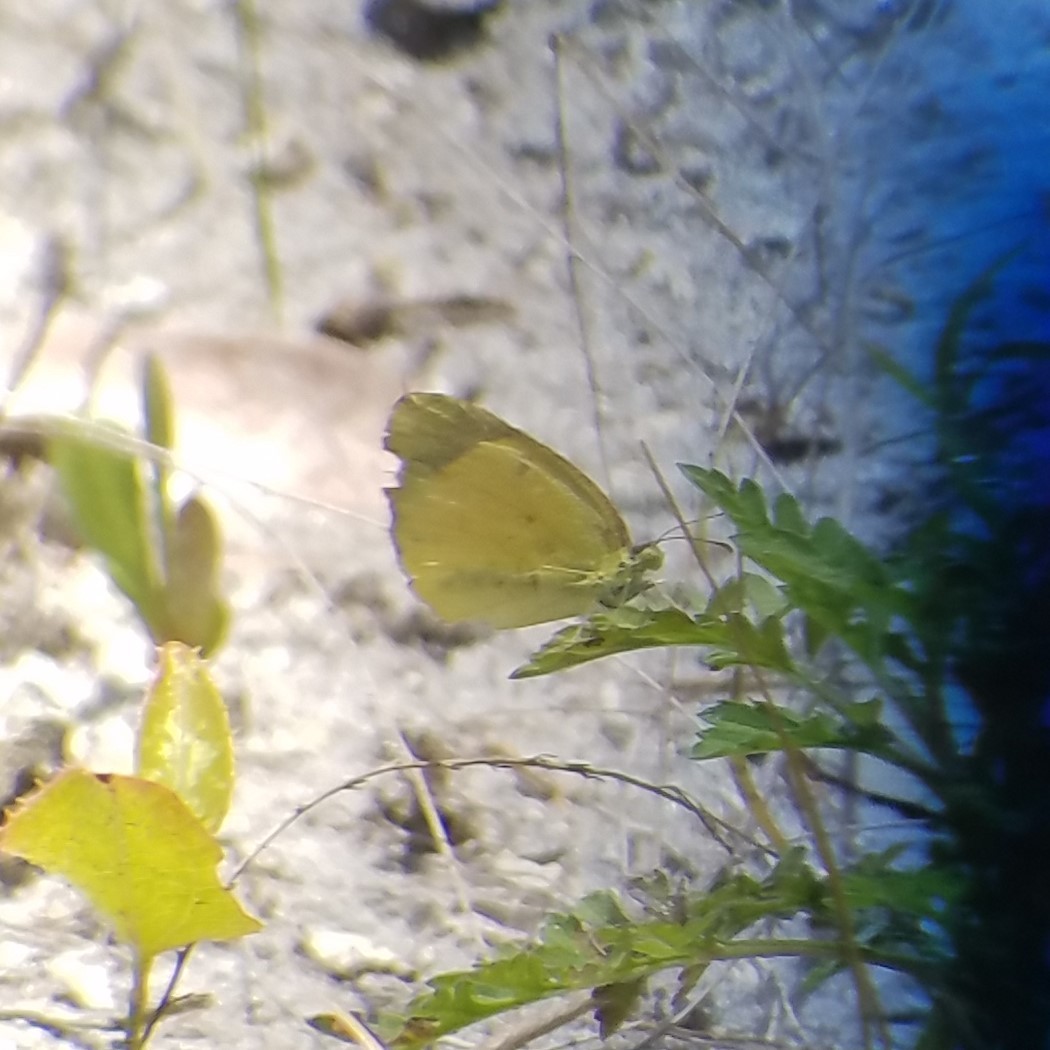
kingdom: Animalia
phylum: Arthropoda
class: Insecta
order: Lepidoptera
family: Pieridae
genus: Pyrisitia
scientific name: Pyrisitia lisa
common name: Little yellow
